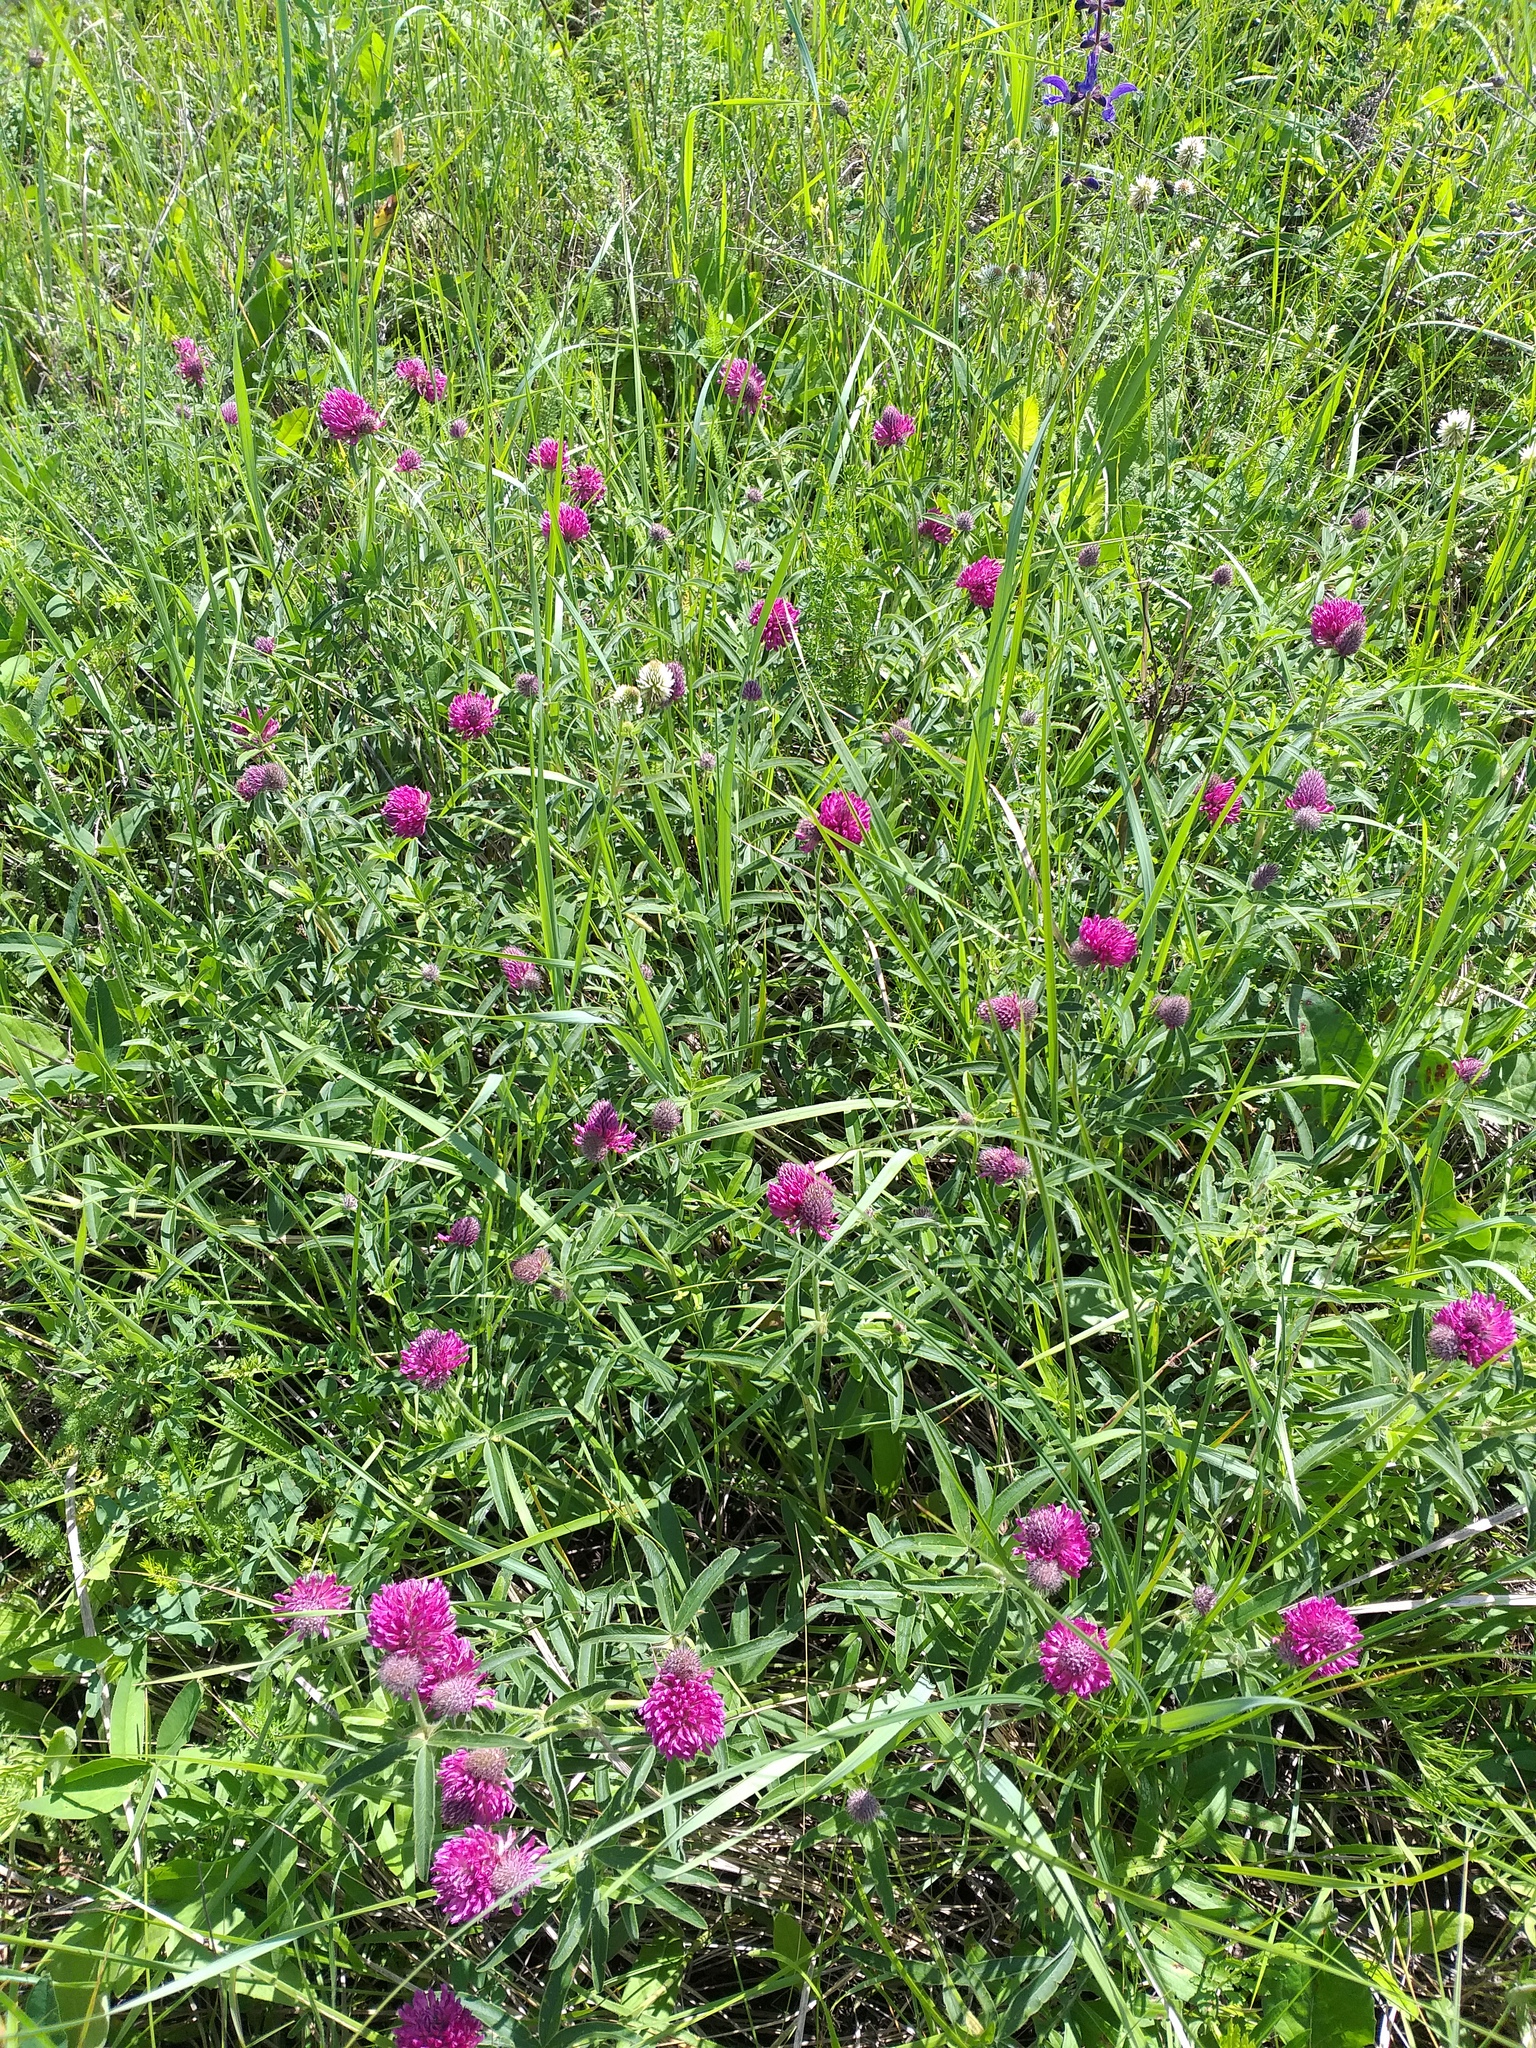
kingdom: Plantae
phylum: Tracheophyta
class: Magnoliopsida
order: Fabales
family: Fabaceae
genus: Trifolium
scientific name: Trifolium alpestre
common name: Owl-head clover
